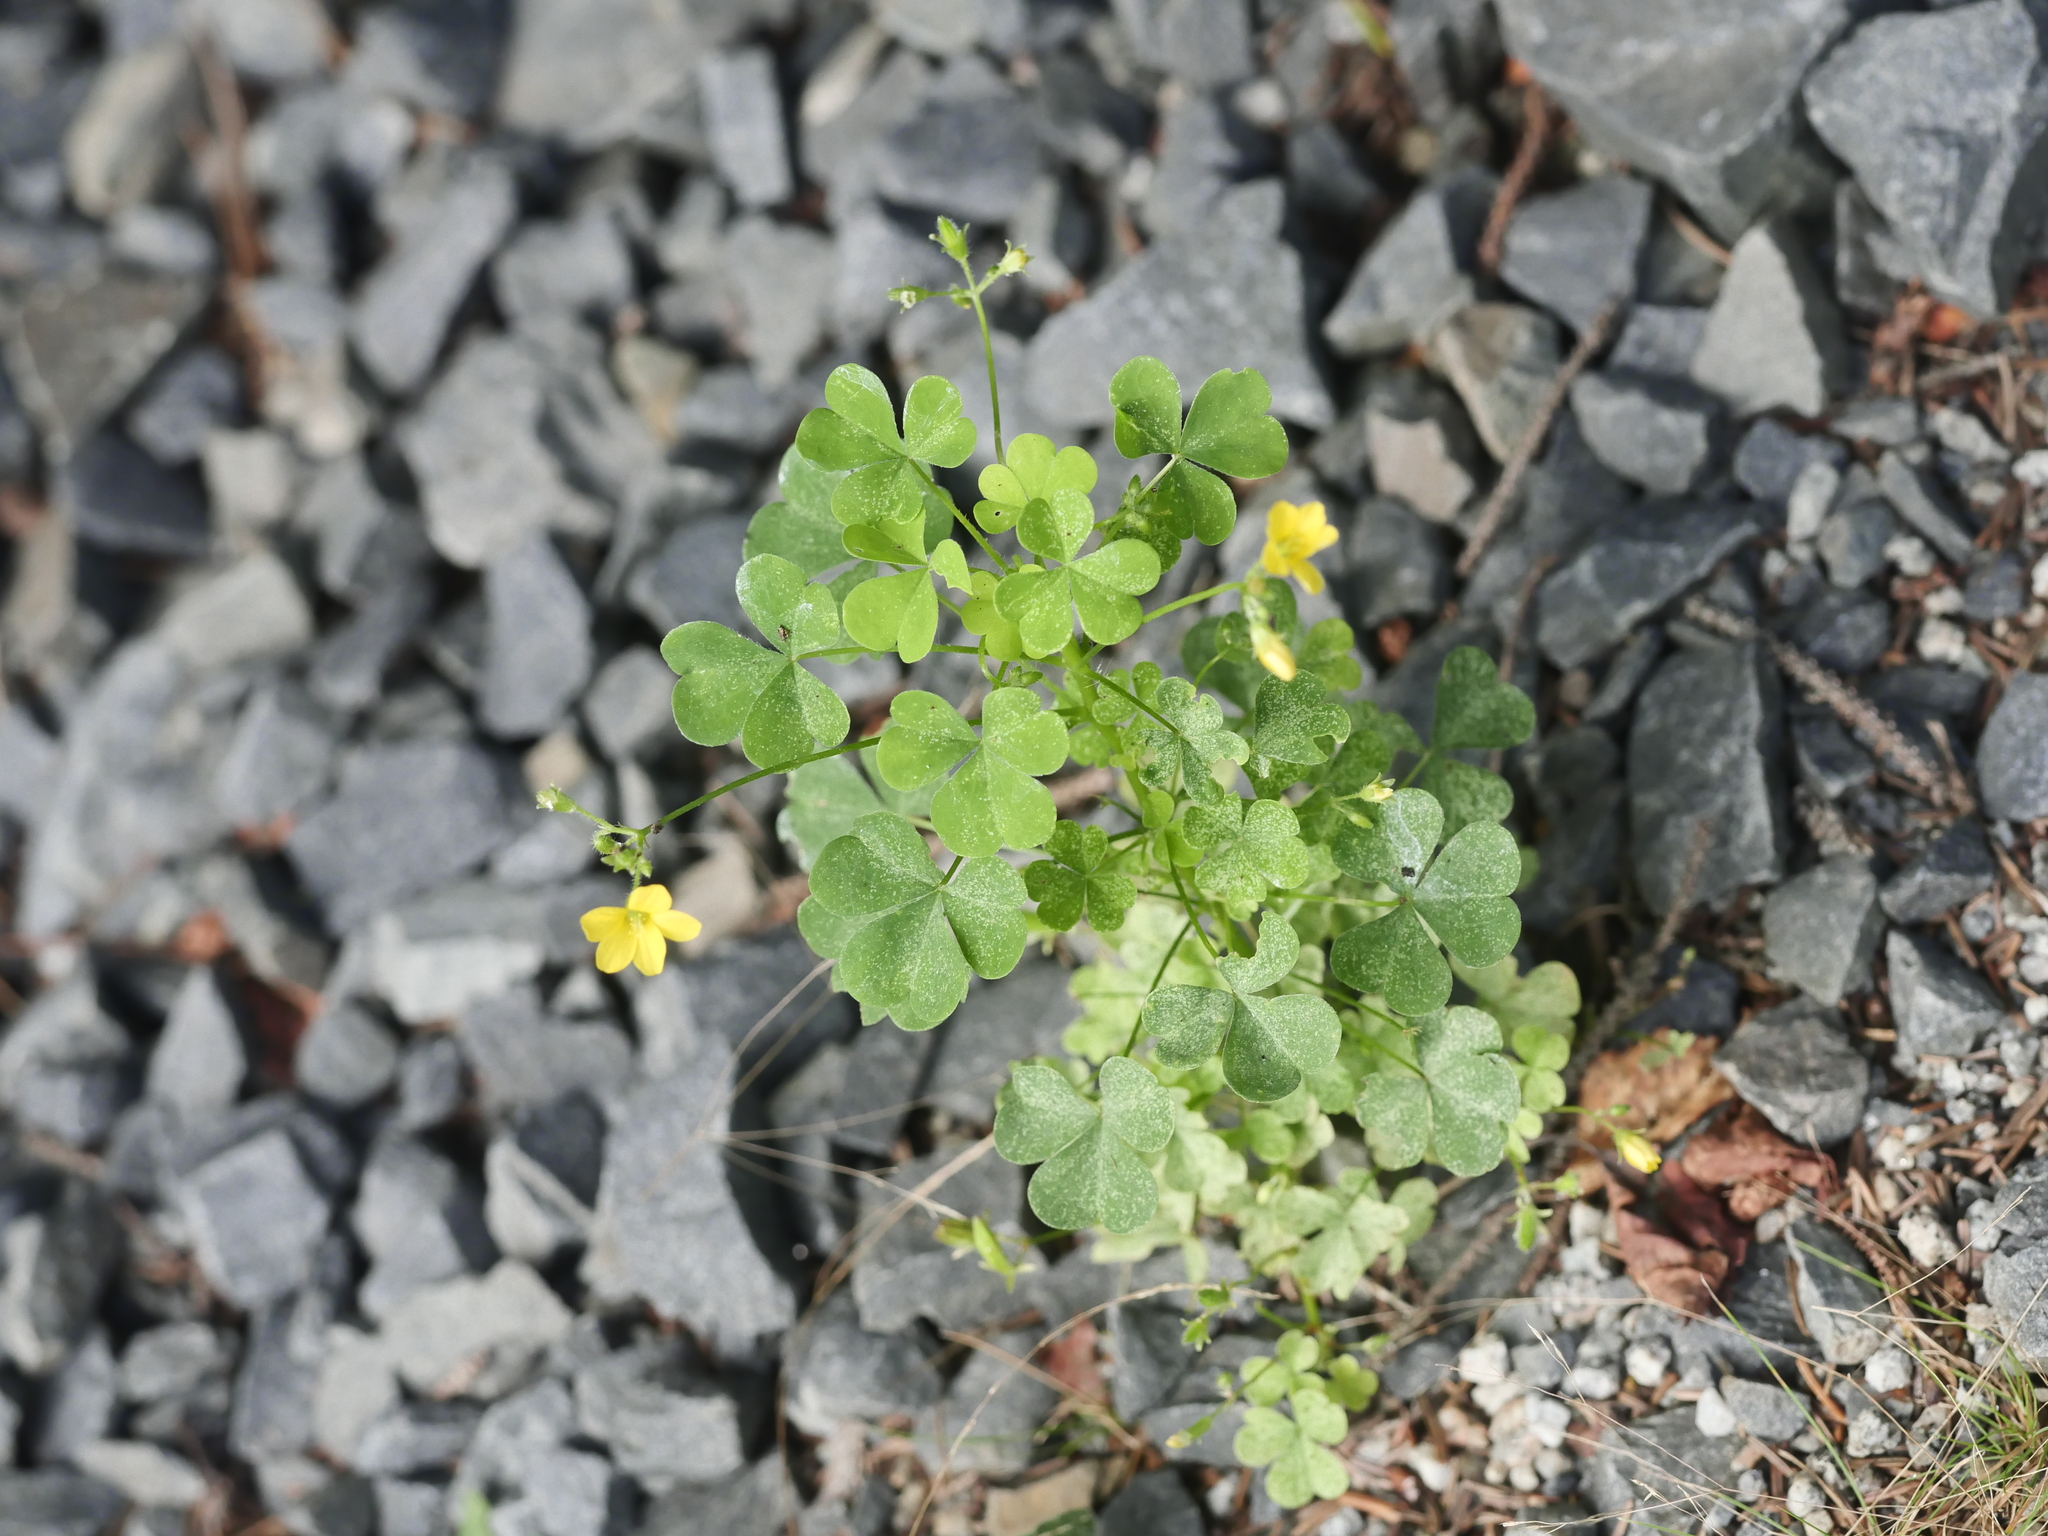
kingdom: Plantae
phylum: Tracheophyta
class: Magnoliopsida
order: Oxalidales
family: Oxalidaceae
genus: Oxalis
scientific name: Oxalis stricta
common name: Upright yellow-sorrel
